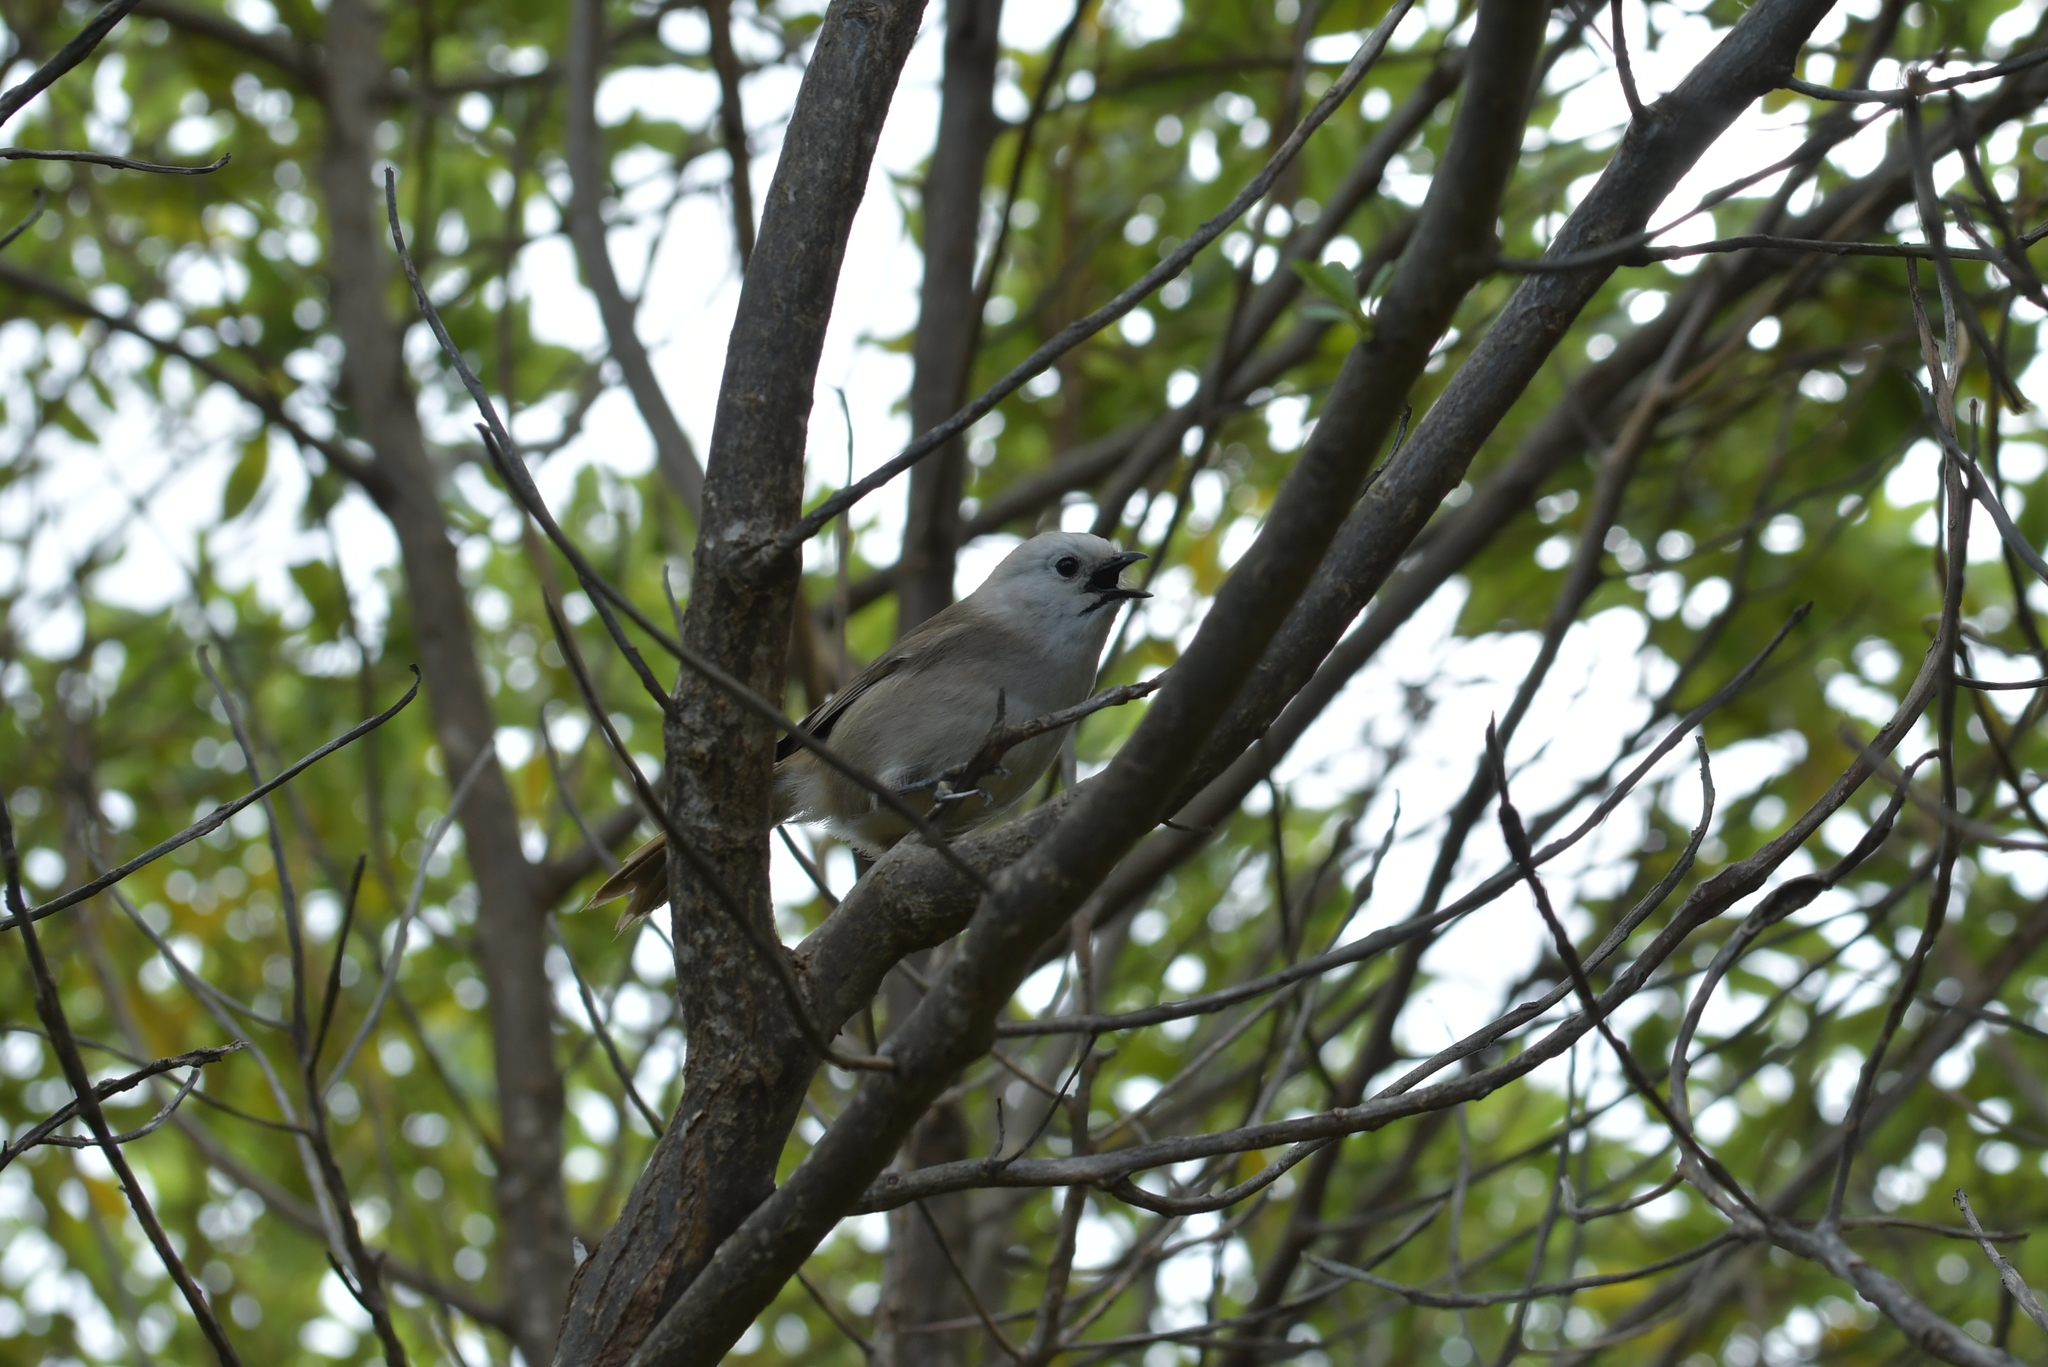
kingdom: Animalia
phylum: Chordata
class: Aves
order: Passeriformes
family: Acanthizidae
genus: Mohoua
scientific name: Mohoua albicilla
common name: Whitehead
